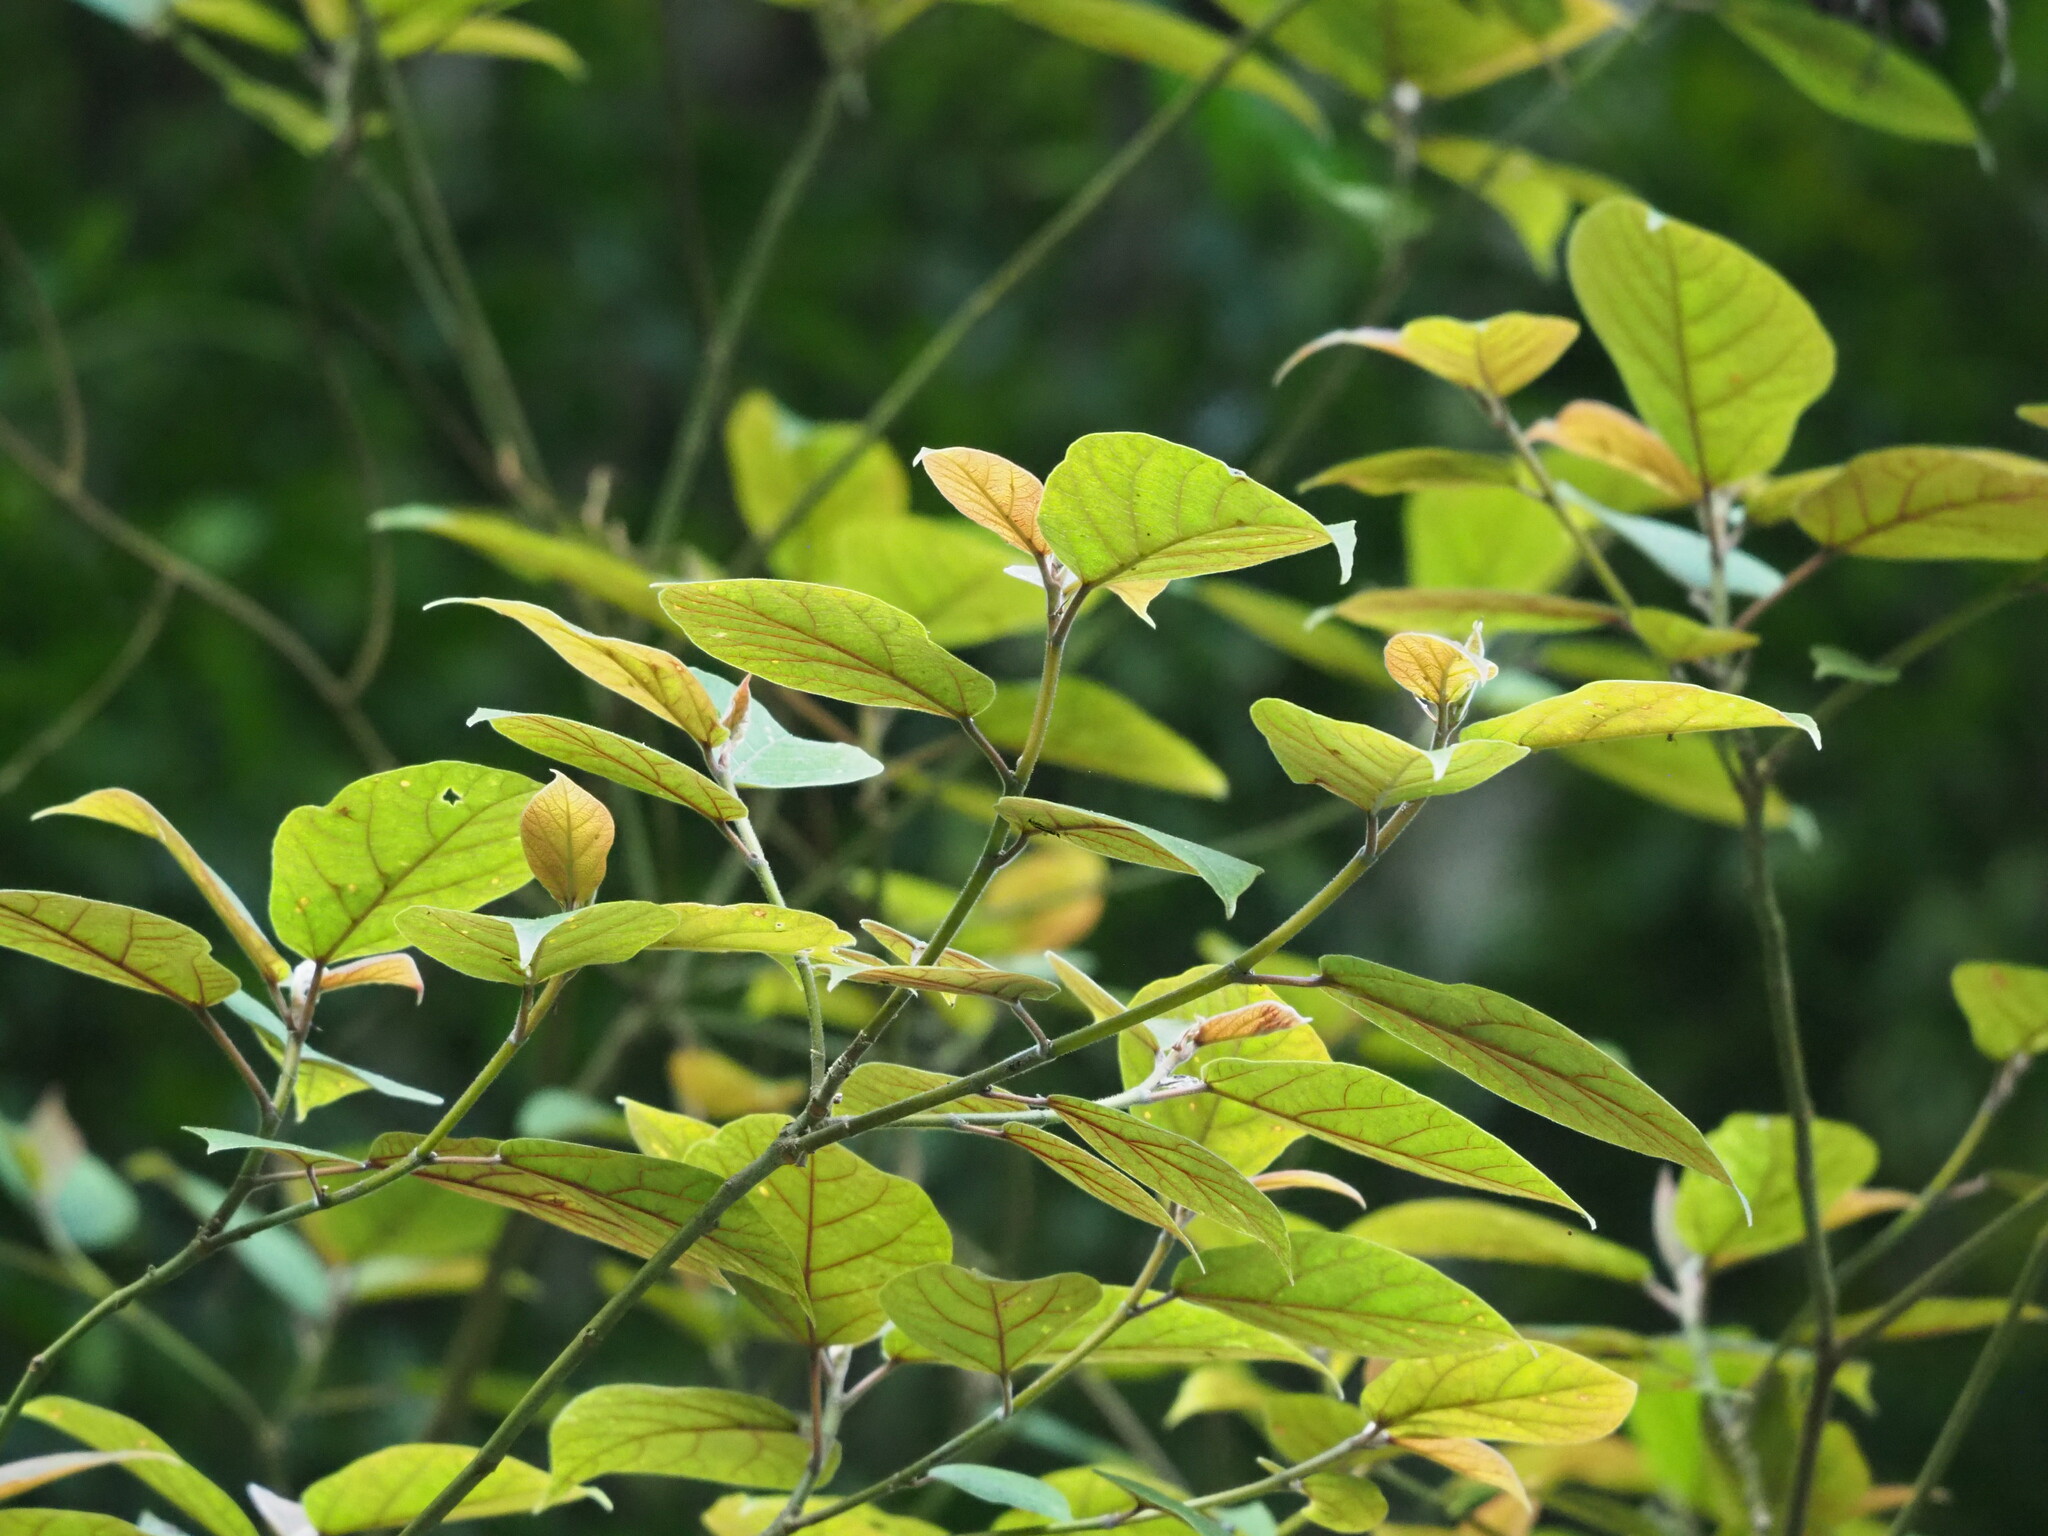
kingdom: Plantae
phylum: Tracheophyta
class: Magnoliopsida
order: Rosales
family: Moraceae
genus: Ficus
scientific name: Ficus erecta
